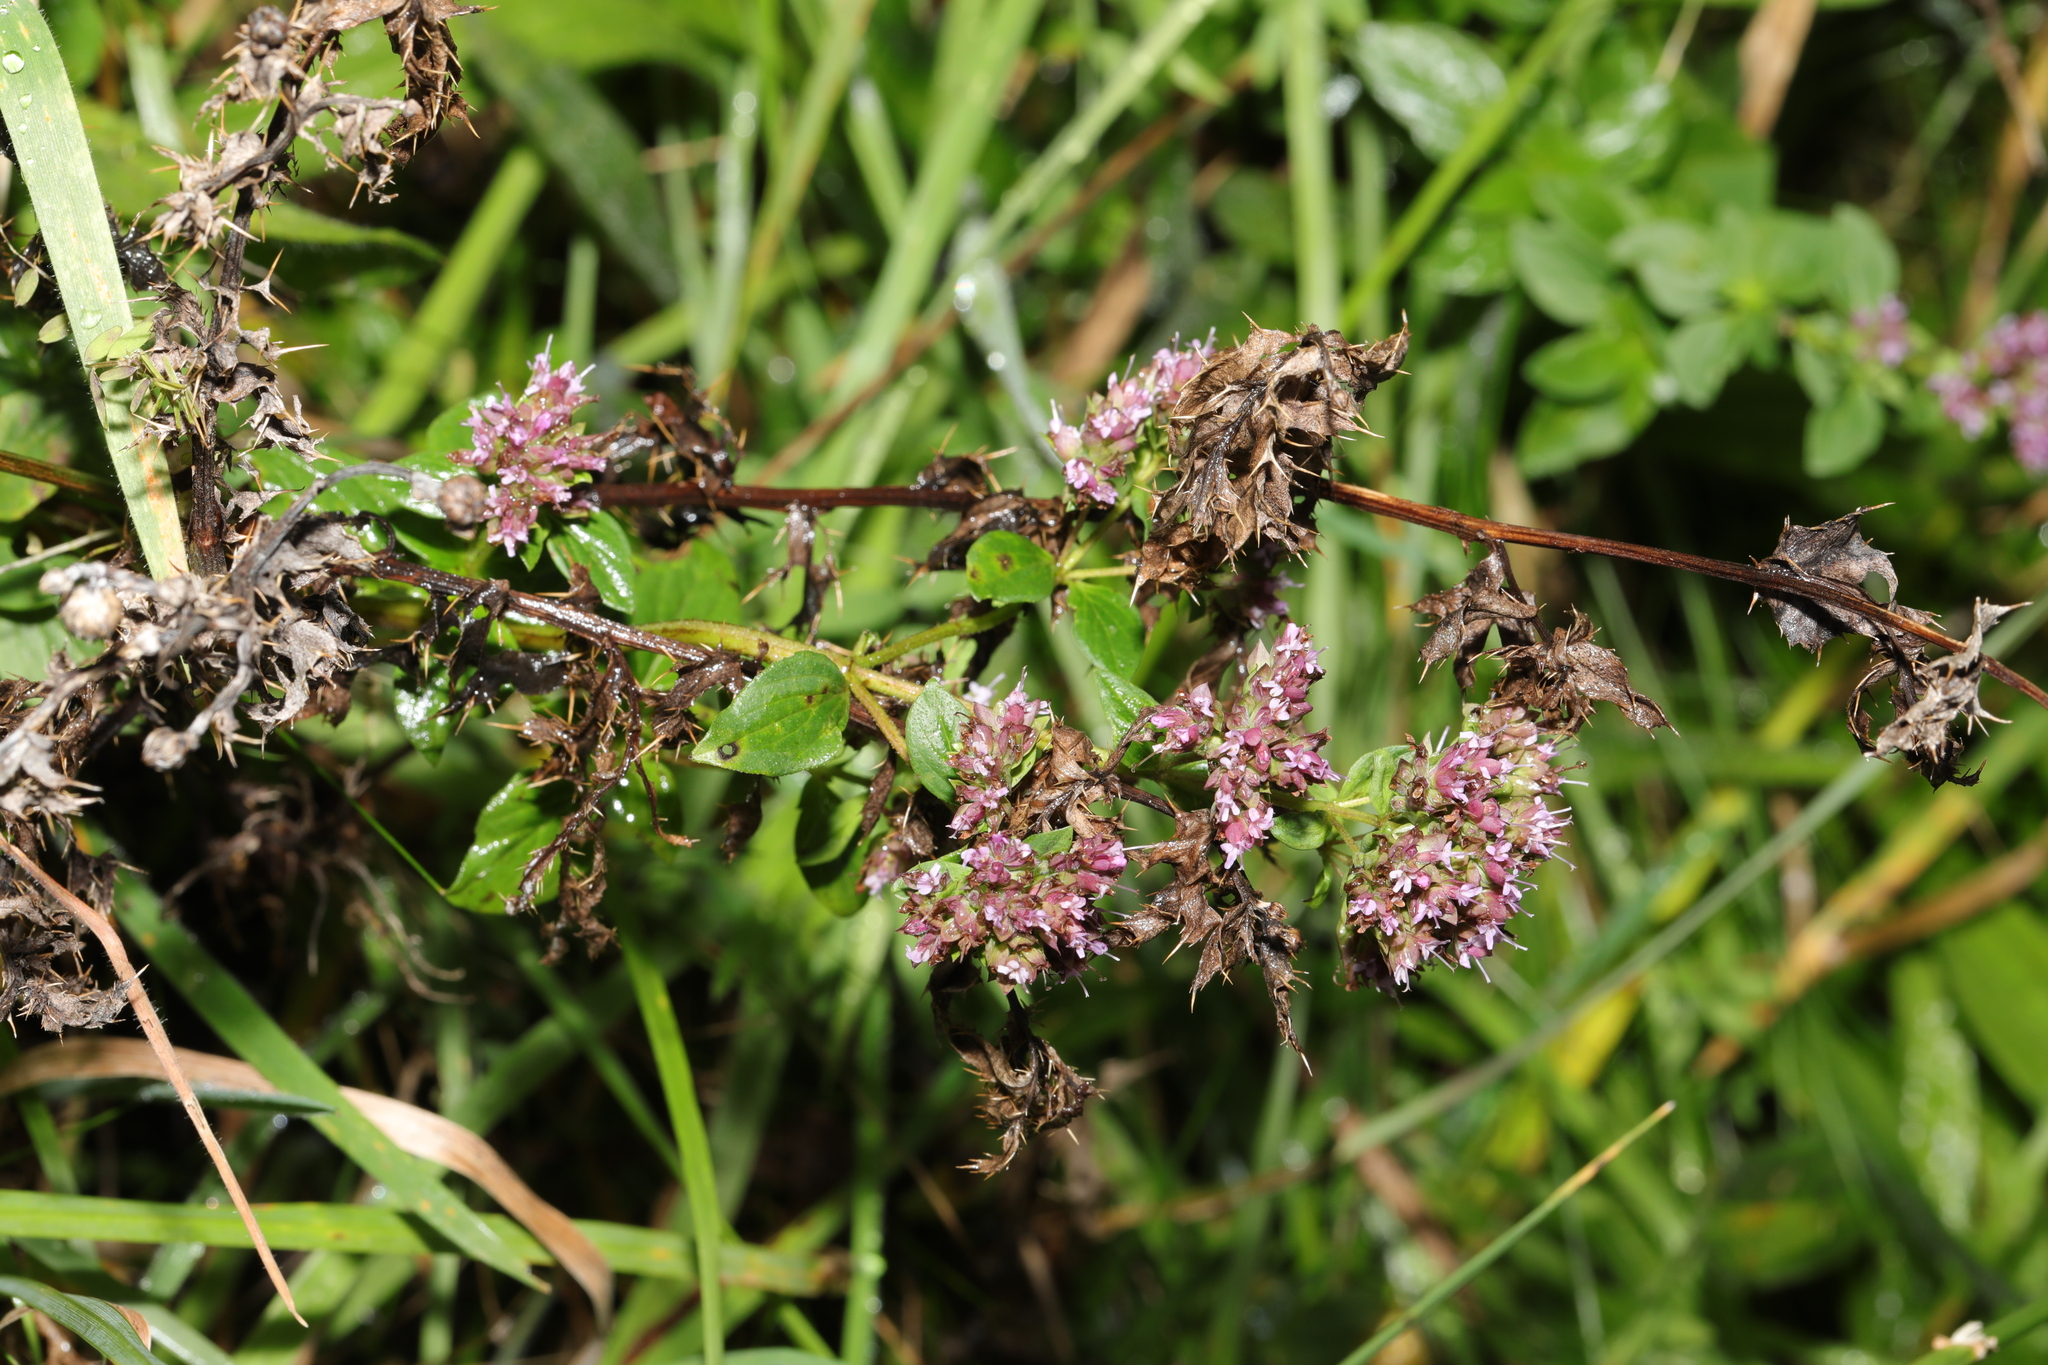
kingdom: Plantae
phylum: Tracheophyta
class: Magnoliopsida
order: Lamiales
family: Lamiaceae
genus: Origanum
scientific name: Origanum vulgare
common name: Wild marjoram
